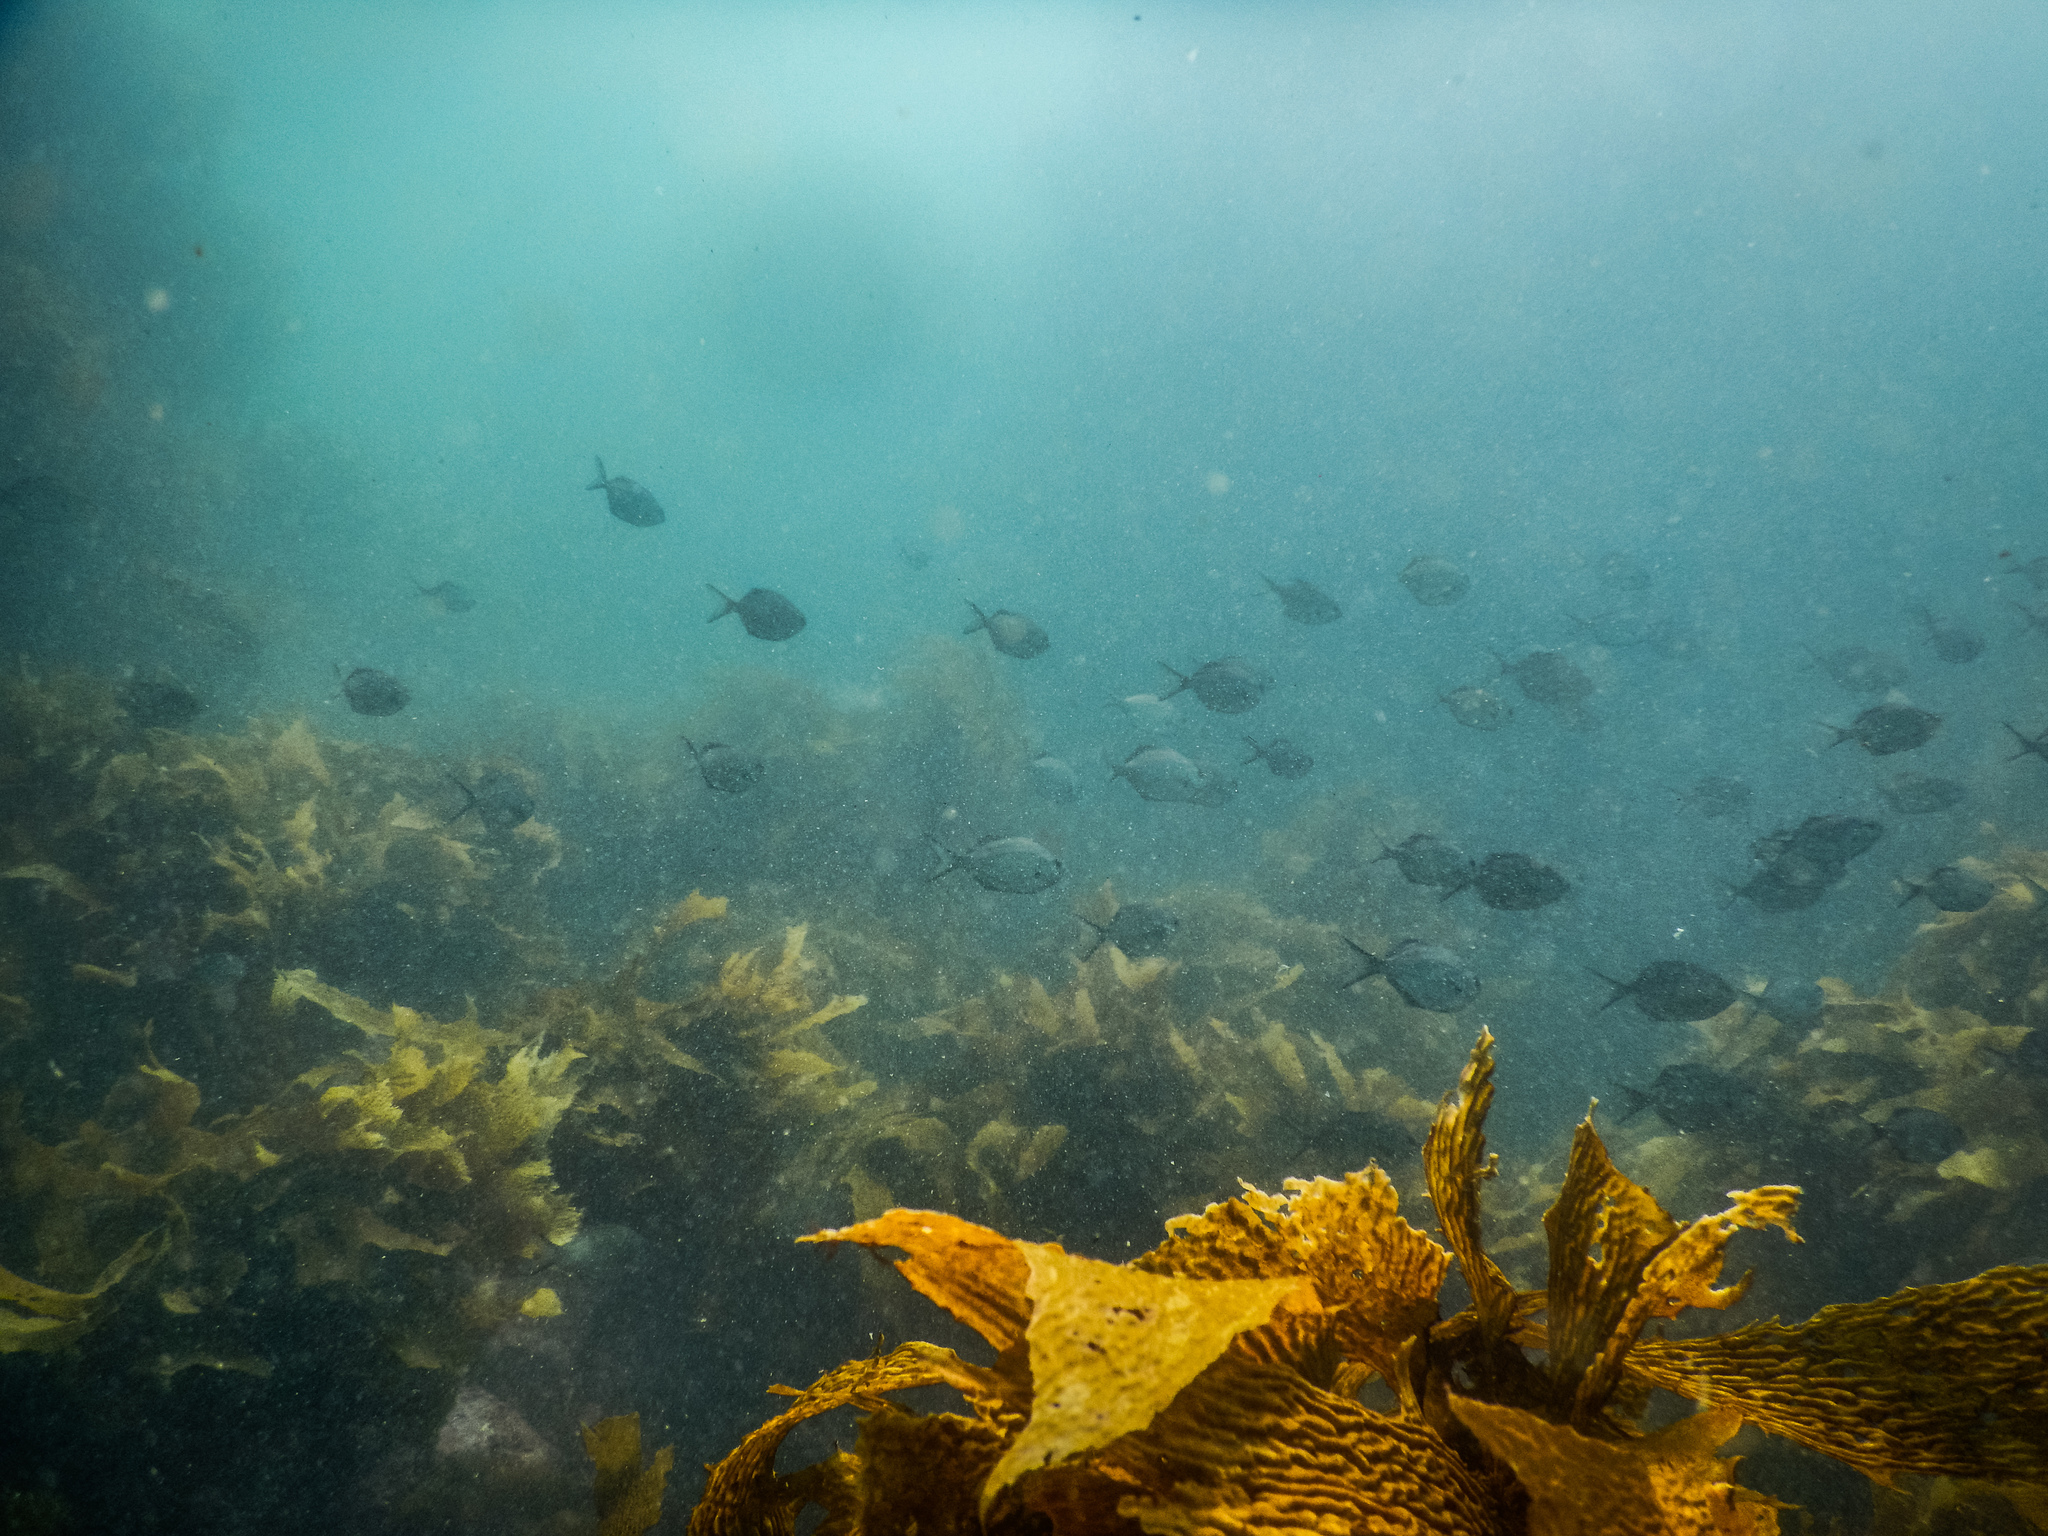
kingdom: Animalia
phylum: Chordata
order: Perciformes
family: Kyphosidae
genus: Scorpis
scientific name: Scorpis lineolata
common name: Sweep
